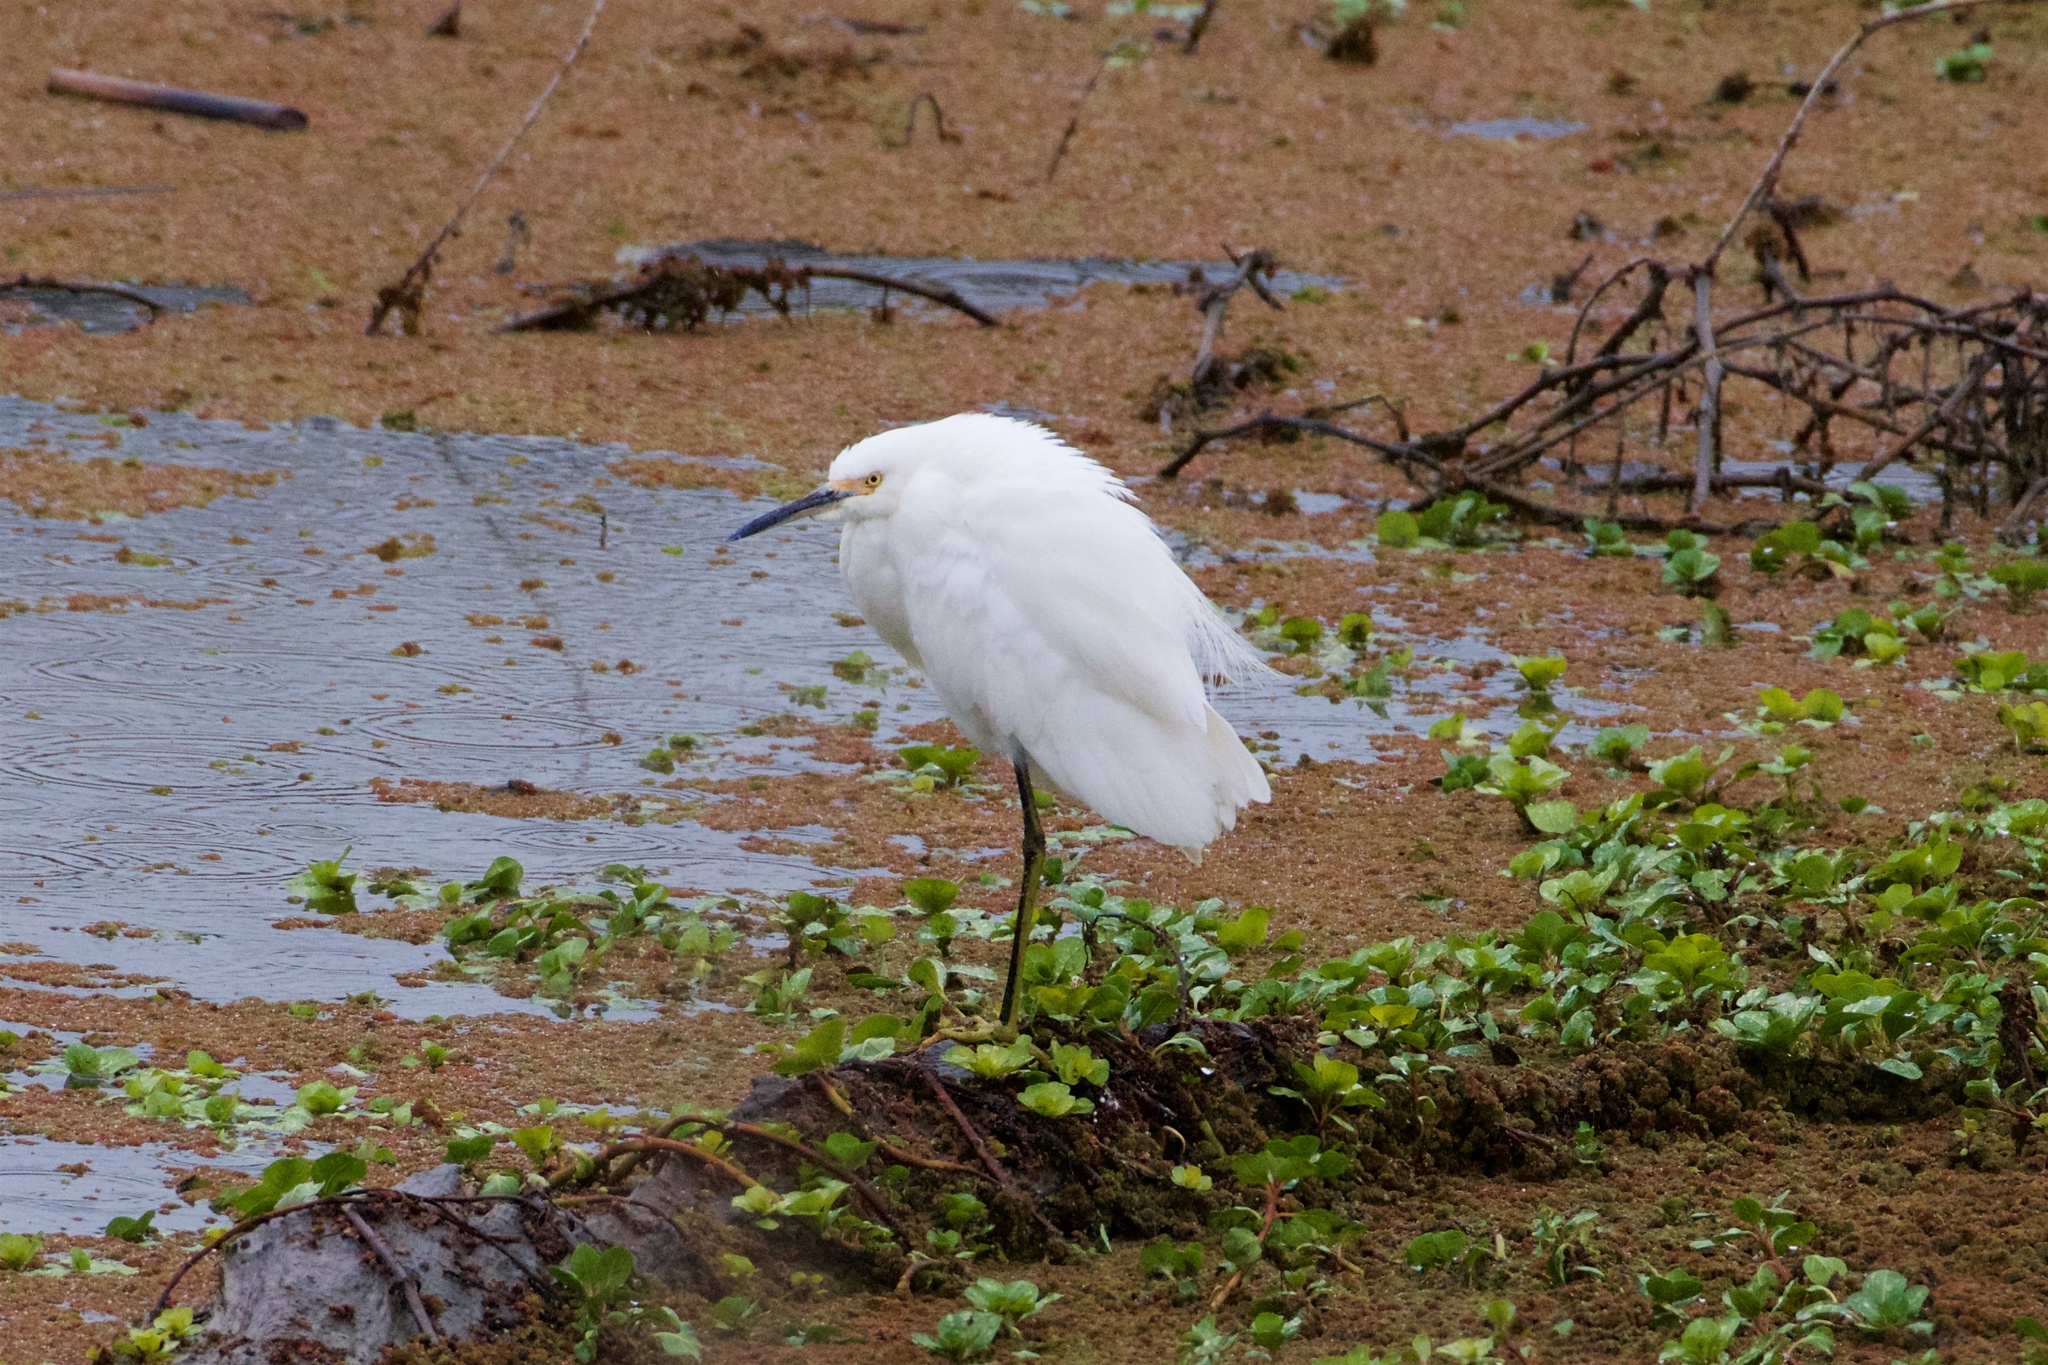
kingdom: Animalia
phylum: Chordata
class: Aves
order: Pelecaniformes
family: Ardeidae
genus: Egretta
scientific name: Egretta thula
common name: Snowy egret
